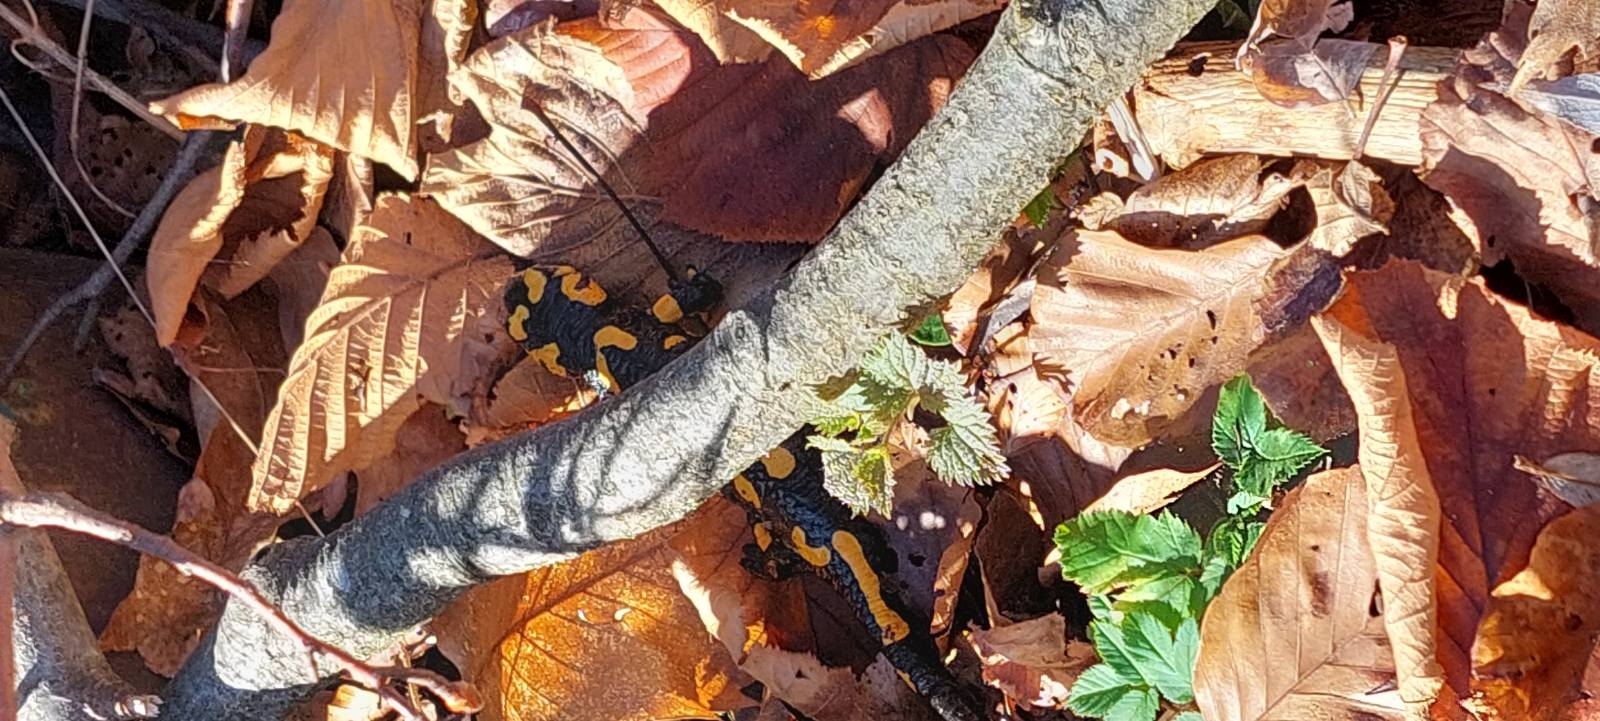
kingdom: Animalia
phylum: Chordata
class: Amphibia
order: Caudata
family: Salamandridae
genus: Salamandra
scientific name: Salamandra salamandra
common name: Fire salamander
